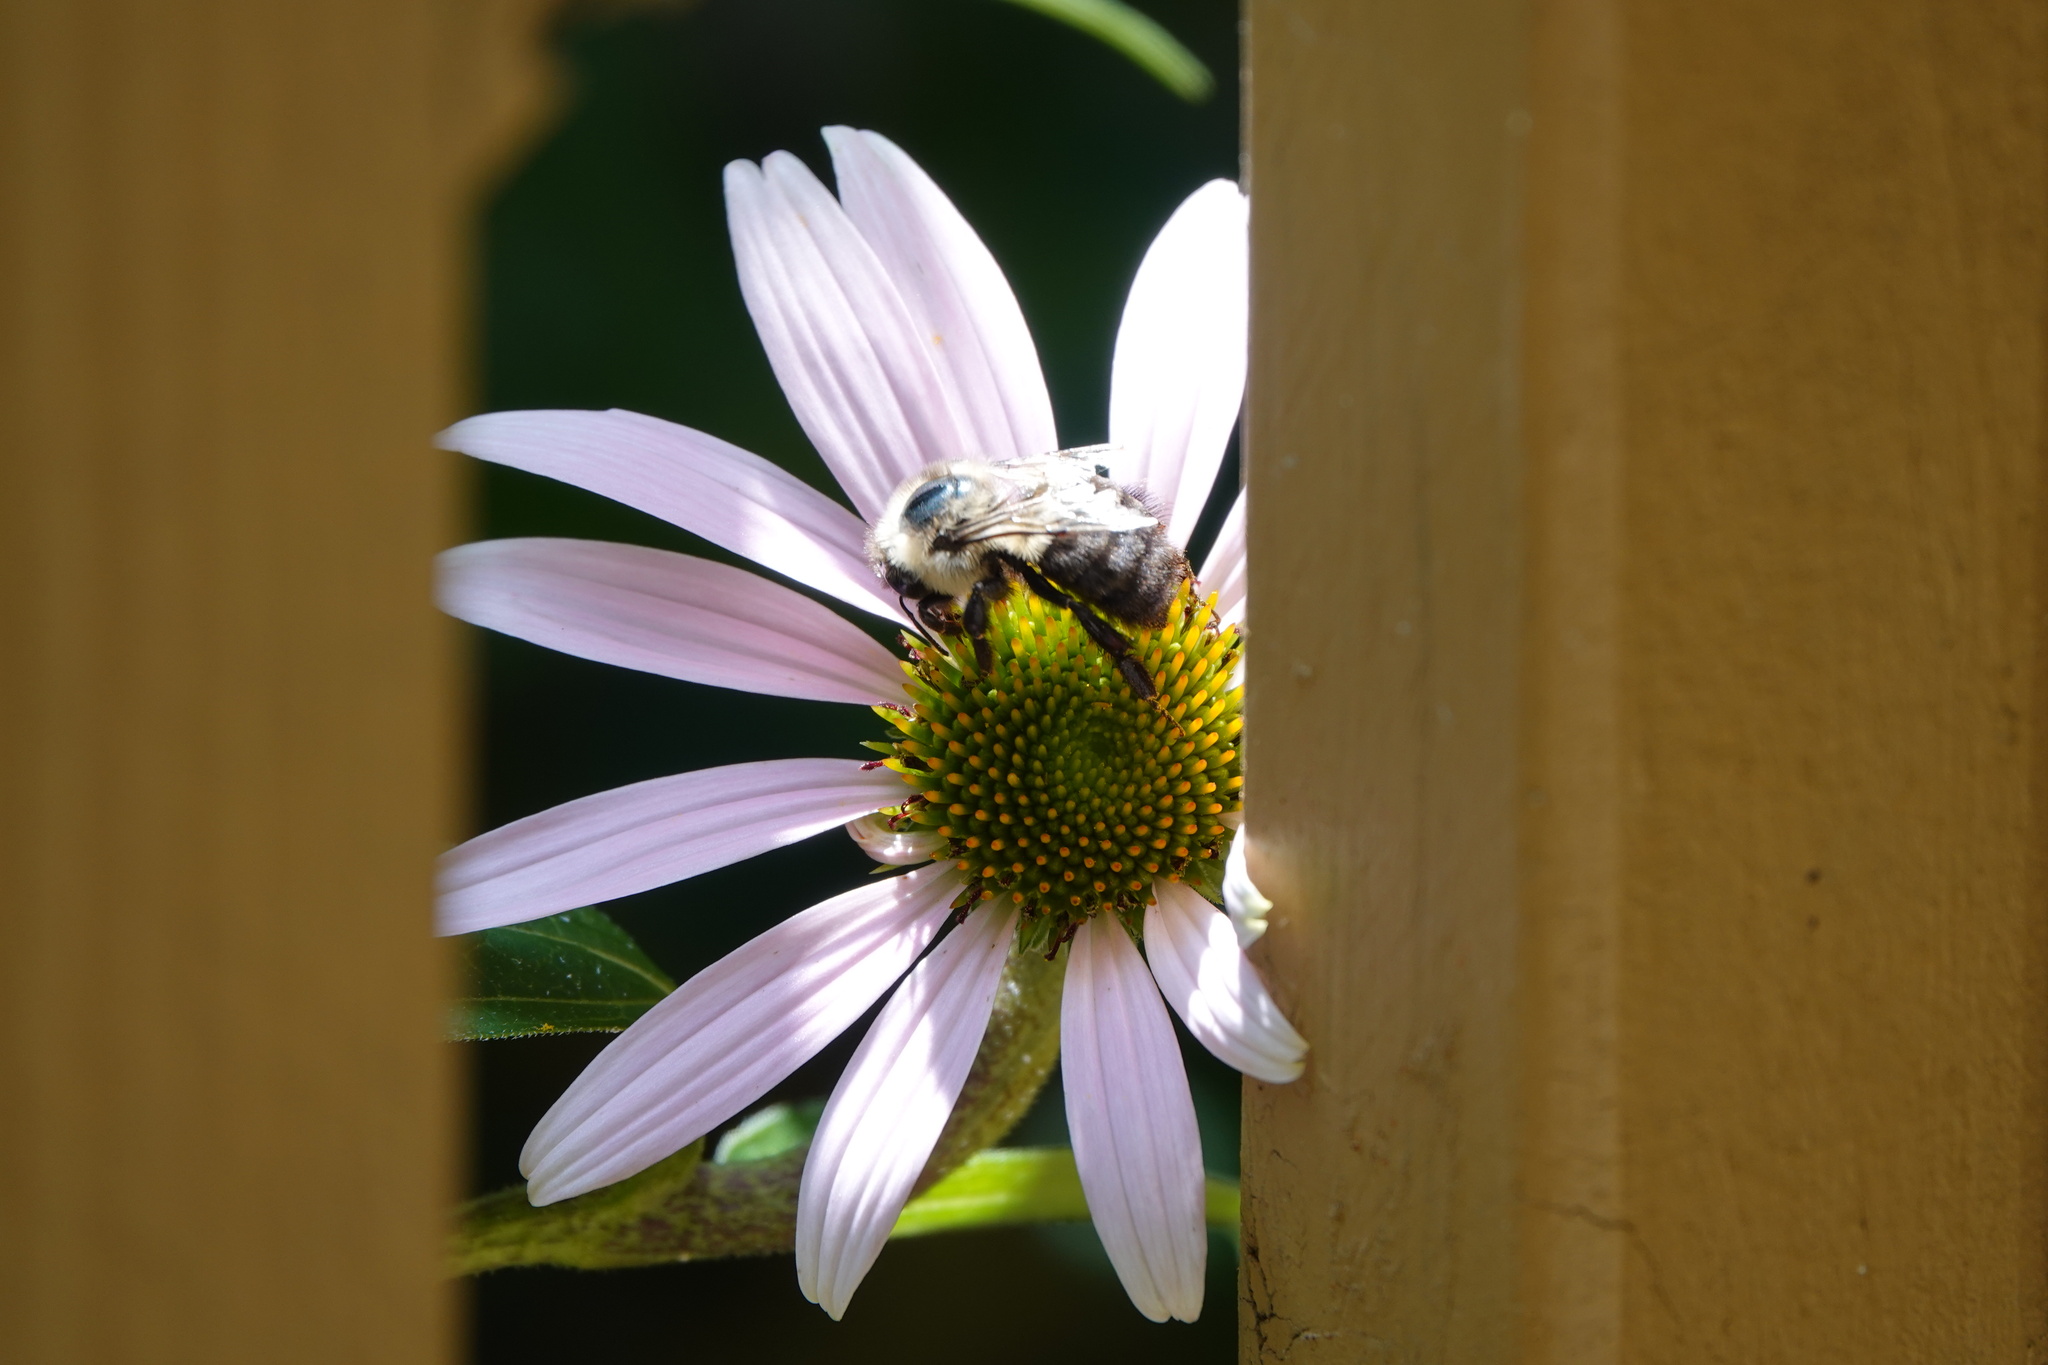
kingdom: Animalia
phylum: Arthropoda
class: Insecta
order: Hymenoptera
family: Apidae
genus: Bombus
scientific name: Bombus impatiens
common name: Common eastern bumble bee
